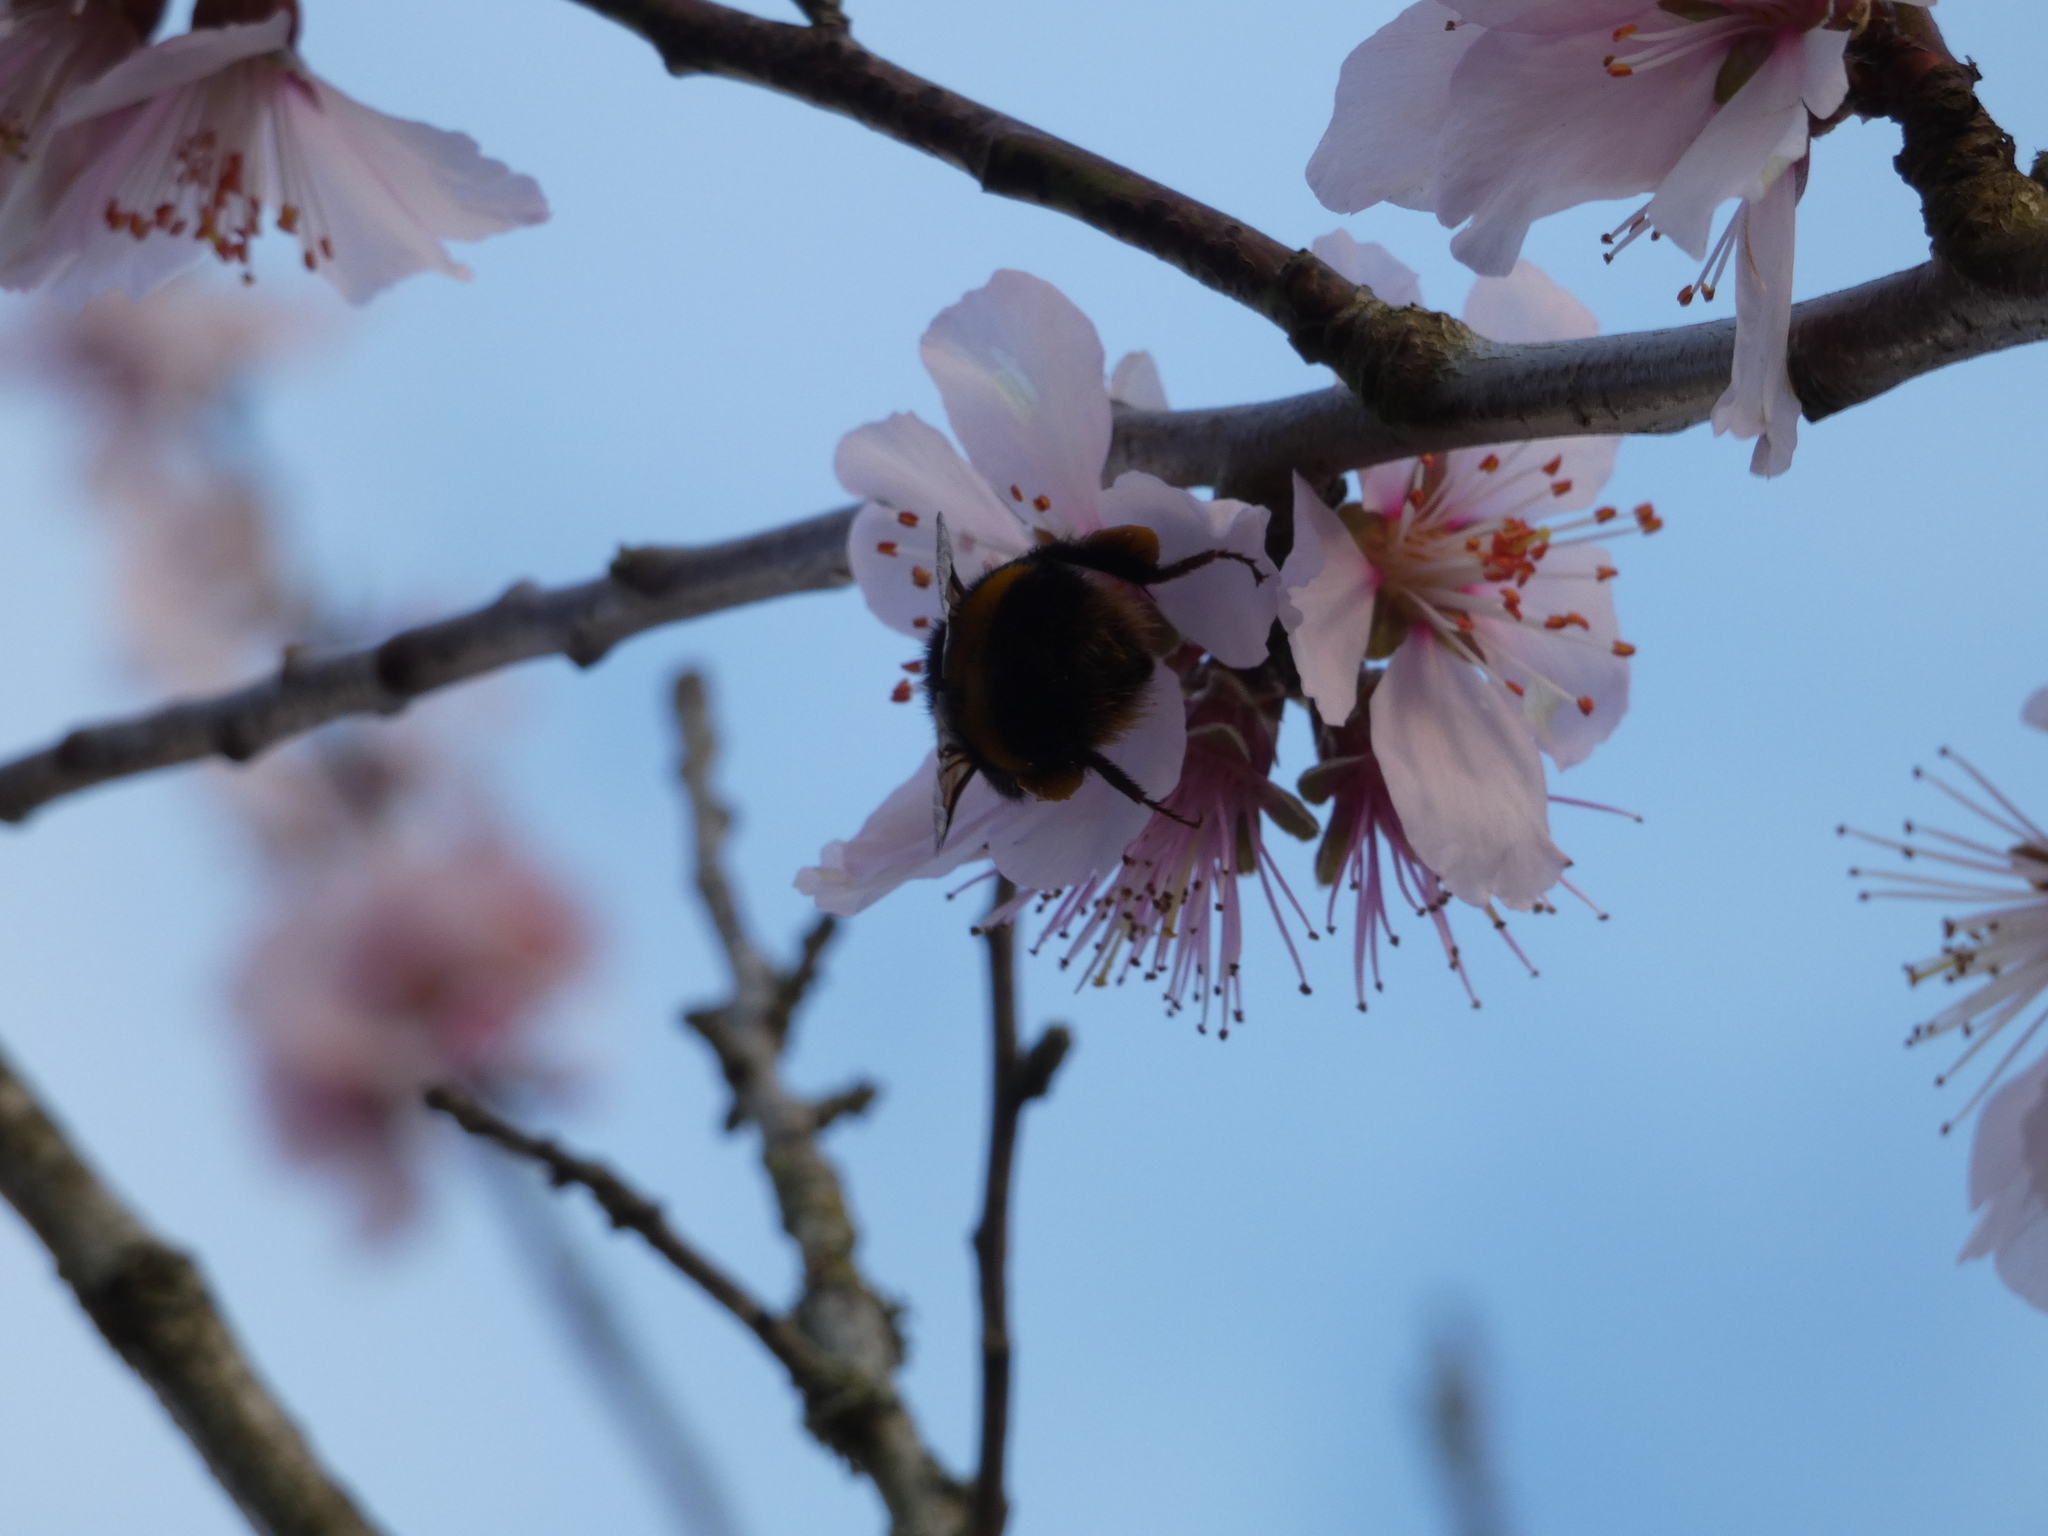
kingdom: Animalia
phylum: Arthropoda
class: Insecta
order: Hymenoptera
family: Apidae
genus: Bombus
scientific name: Bombus terrestris
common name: Buff-tailed bumblebee
